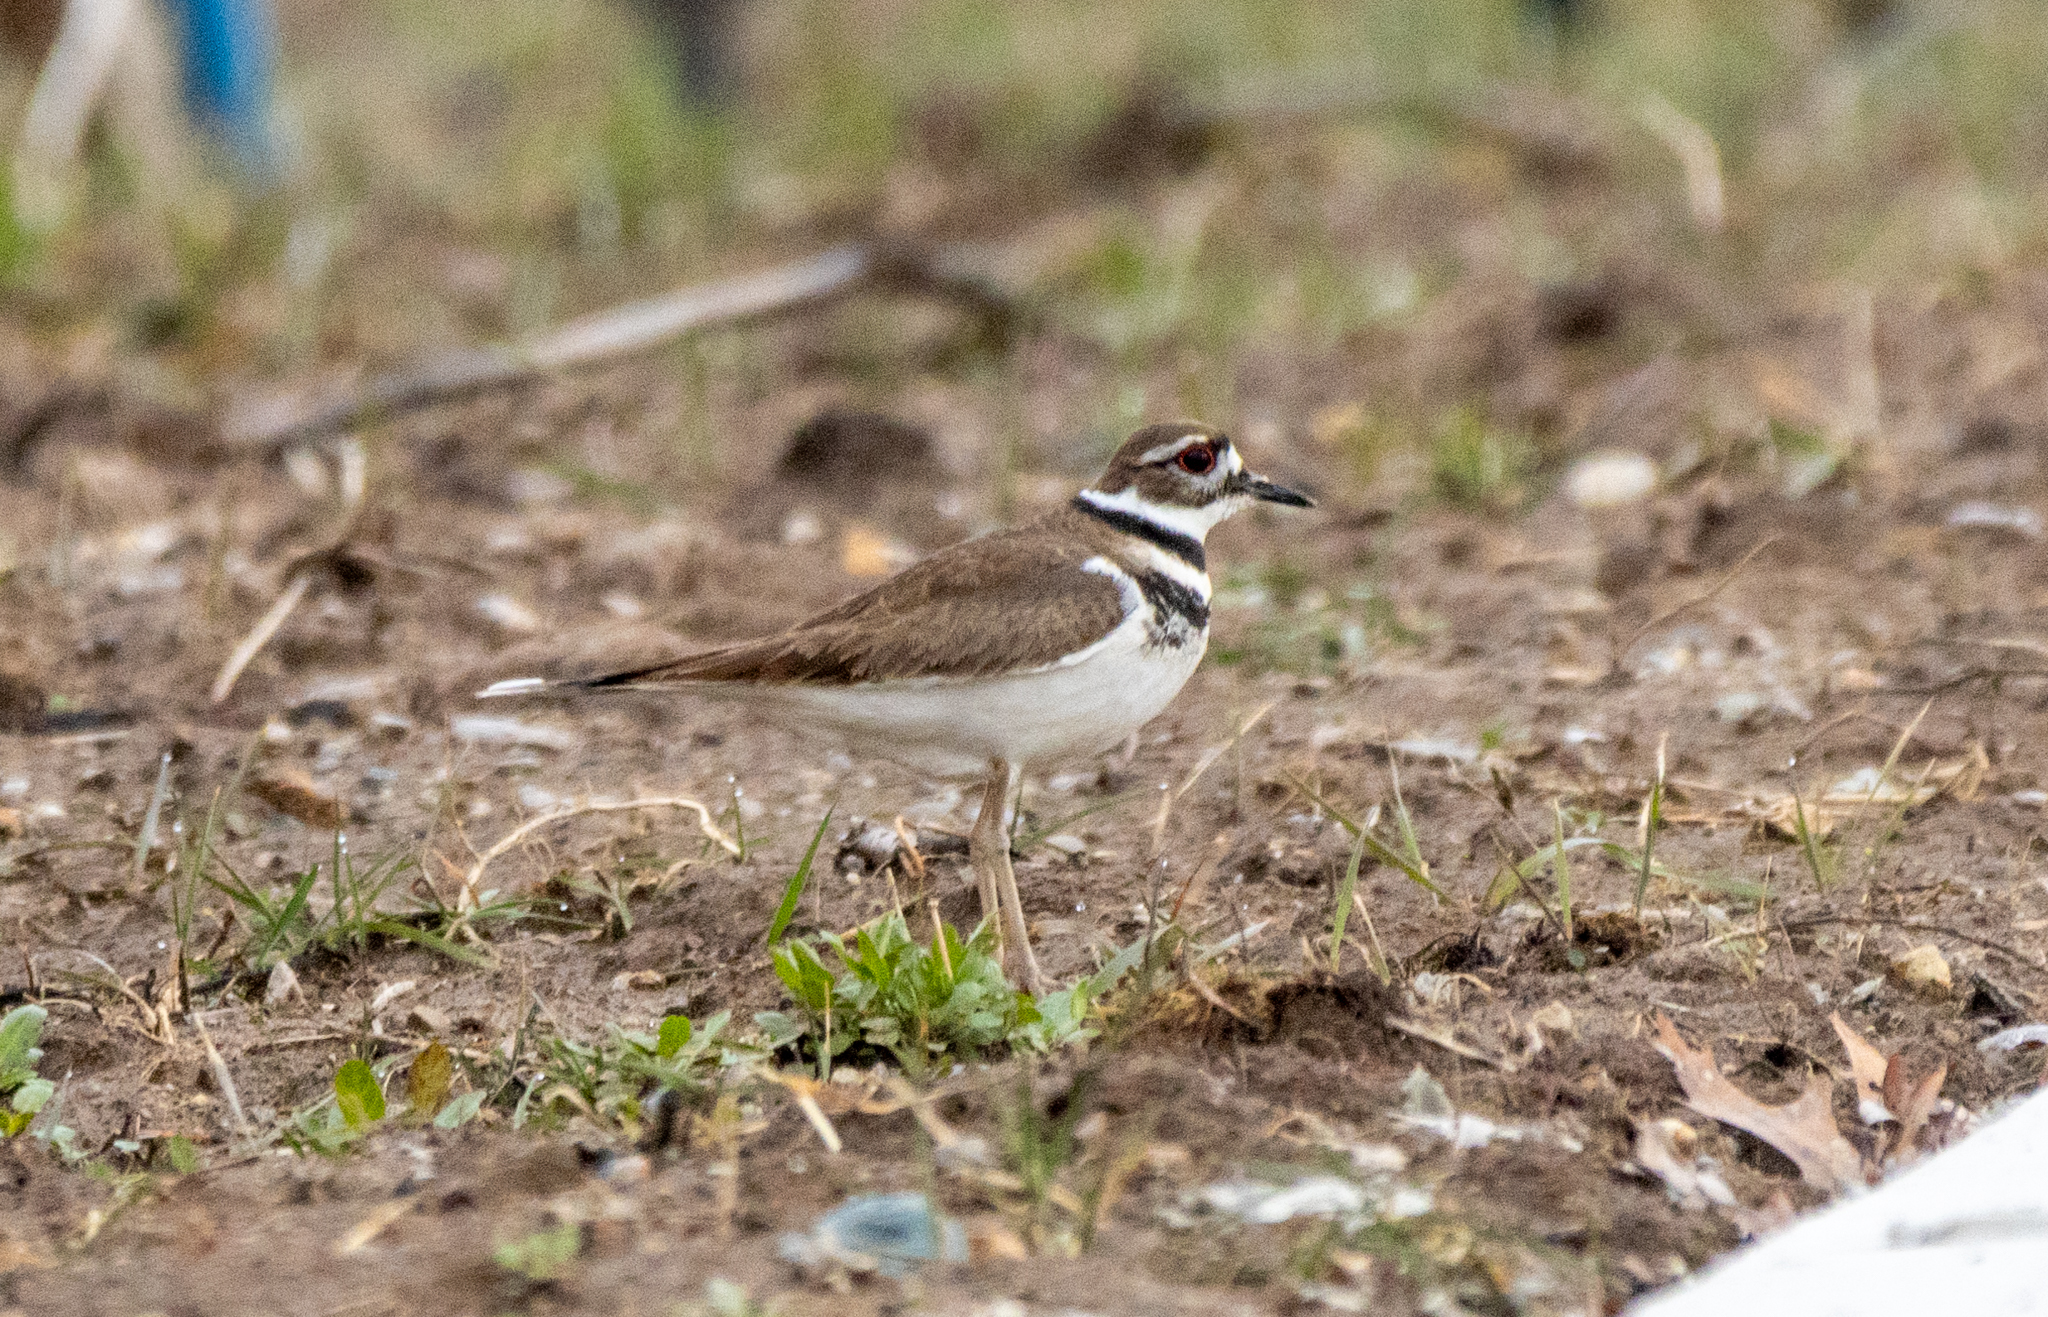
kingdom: Animalia
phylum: Chordata
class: Aves
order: Charadriiformes
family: Charadriidae
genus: Charadrius
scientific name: Charadrius vociferus
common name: Killdeer
